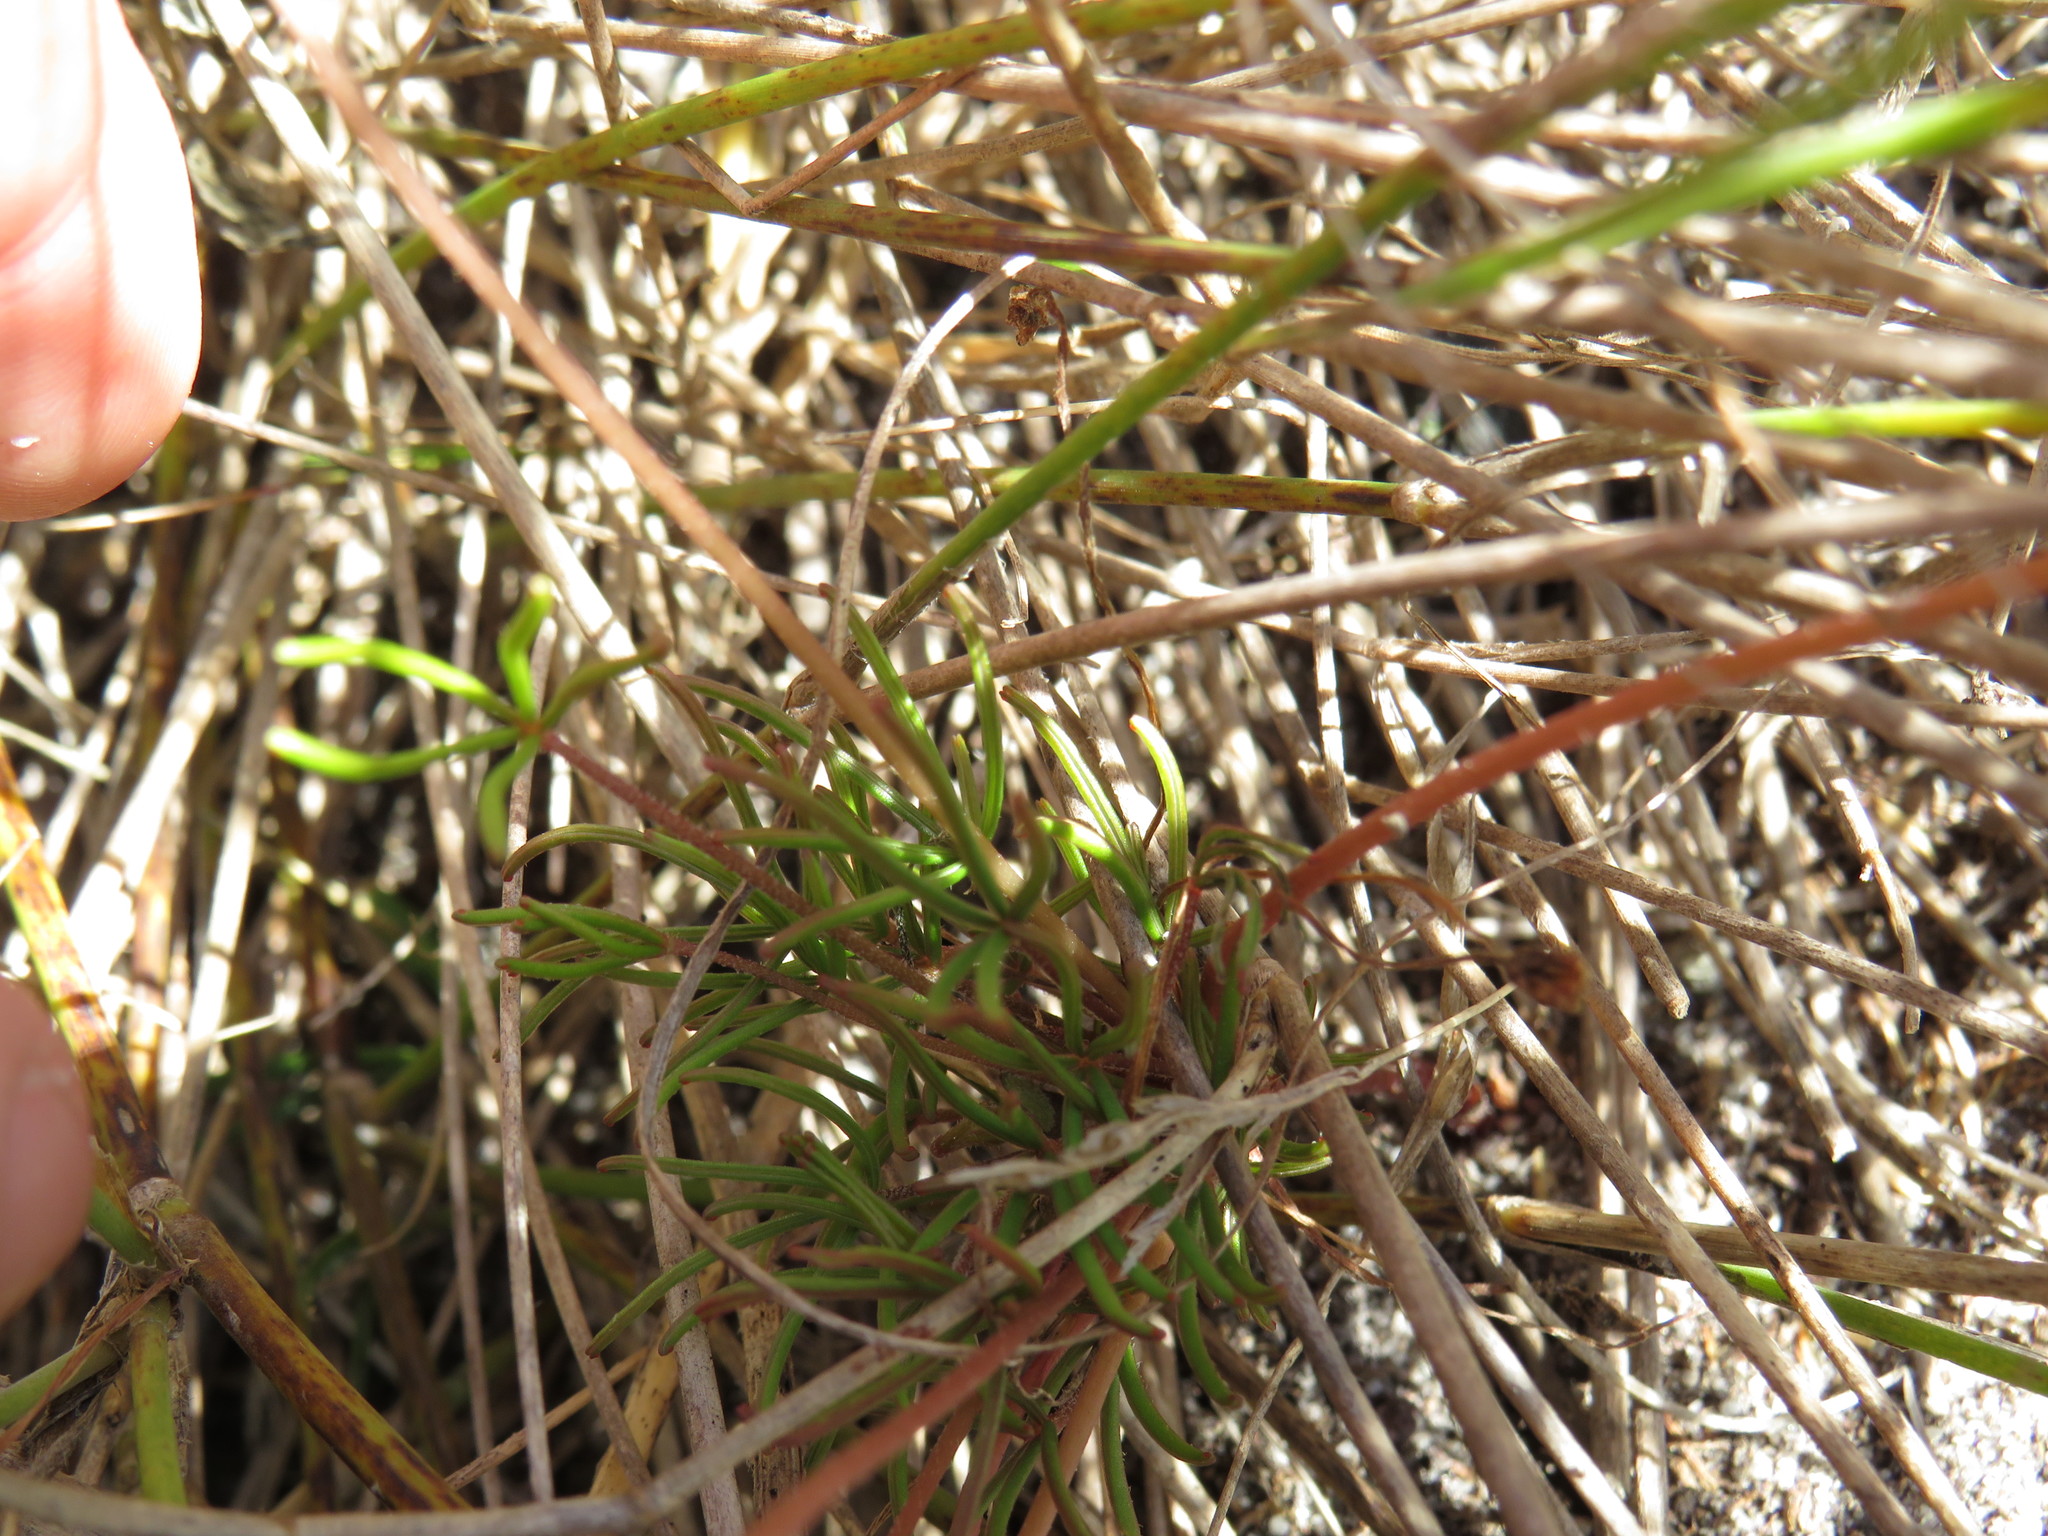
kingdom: Plantae
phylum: Tracheophyta
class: Magnoliopsida
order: Oxalidales
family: Oxalidaceae
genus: Oxalis
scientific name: Oxalis polyphylla
